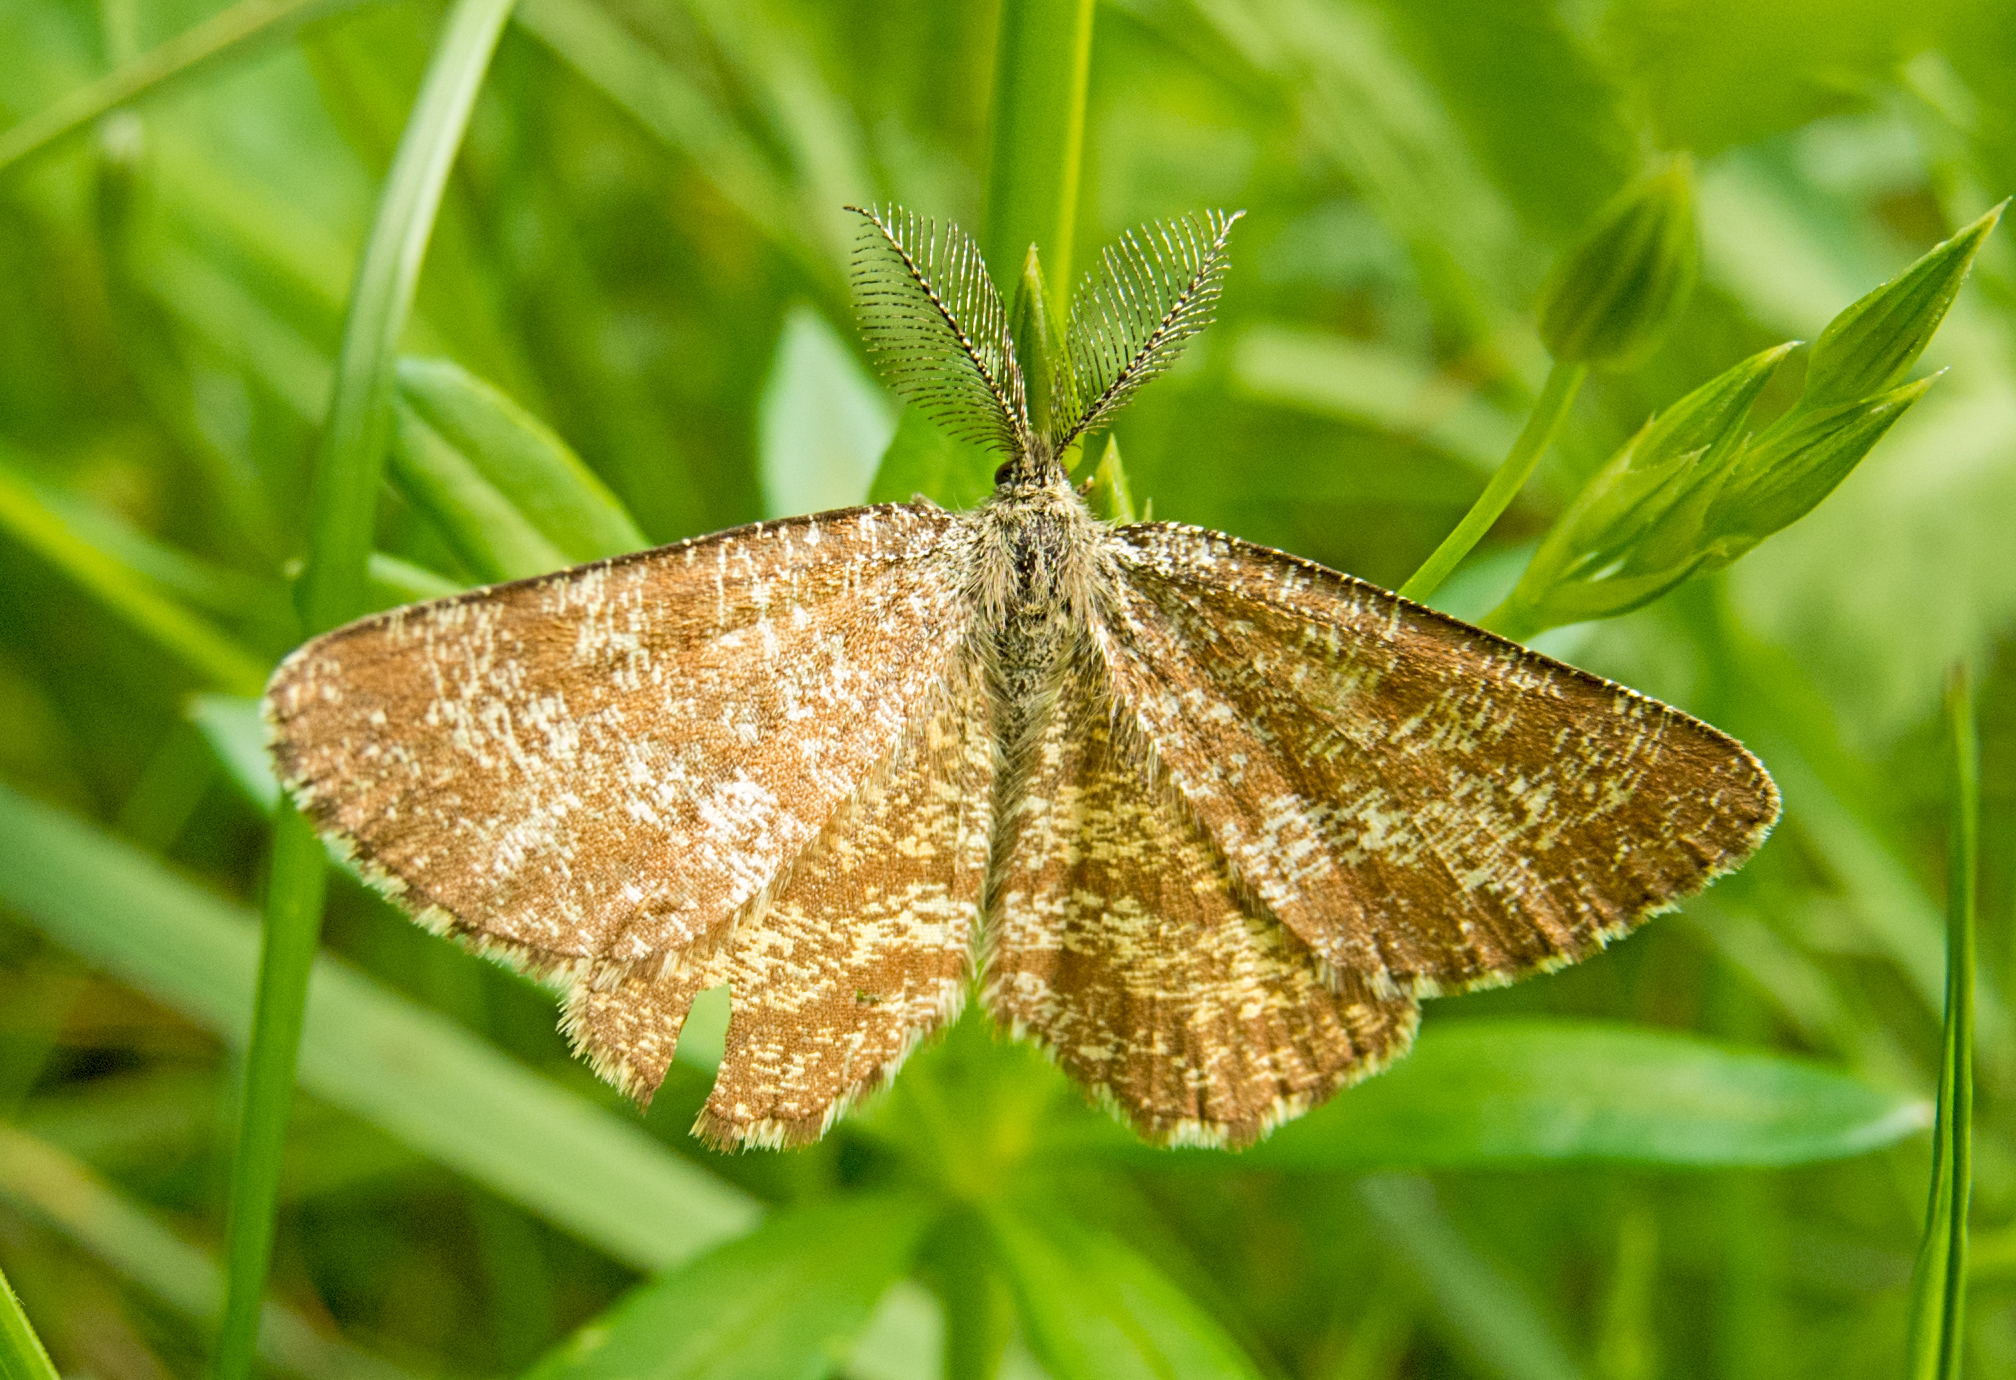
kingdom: Animalia
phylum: Arthropoda
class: Insecta
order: Lepidoptera
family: Geometridae
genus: Ematurga
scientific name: Ematurga atomaria
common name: Common heath
